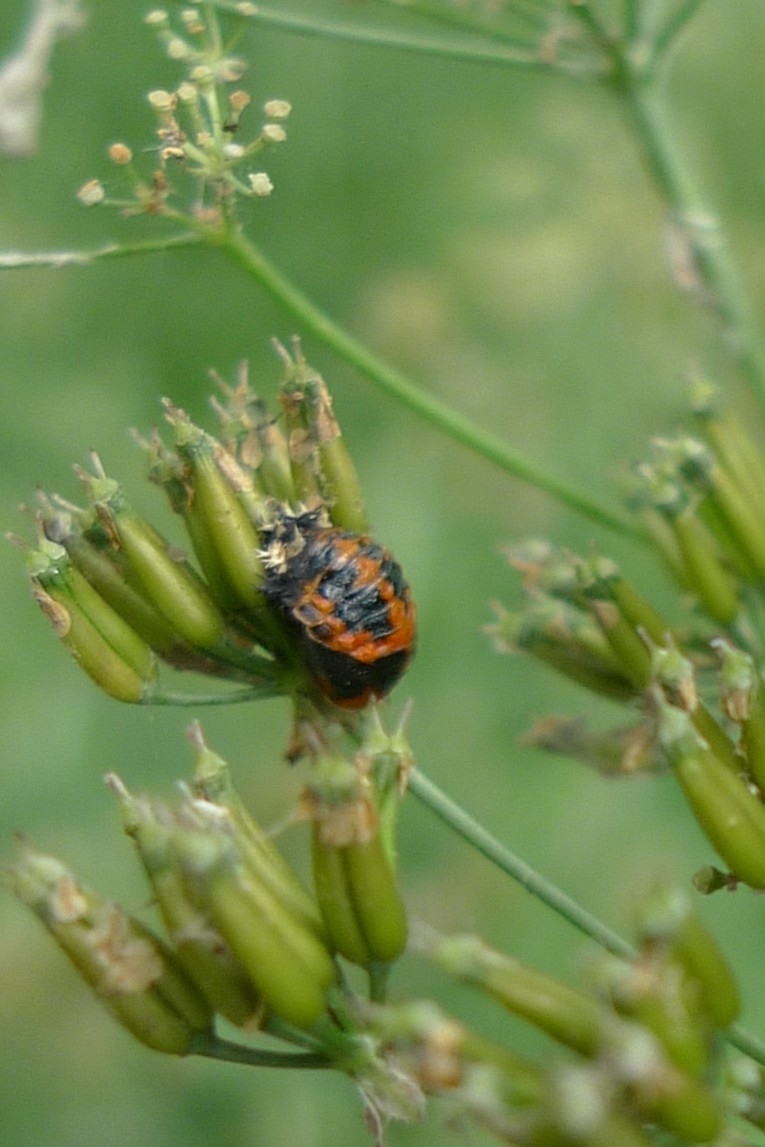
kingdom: Animalia
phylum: Arthropoda
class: Insecta
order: Coleoptera
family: Coccinellidae
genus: Harmonia
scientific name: Harmonia axyridis
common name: Harlequin ladybird
